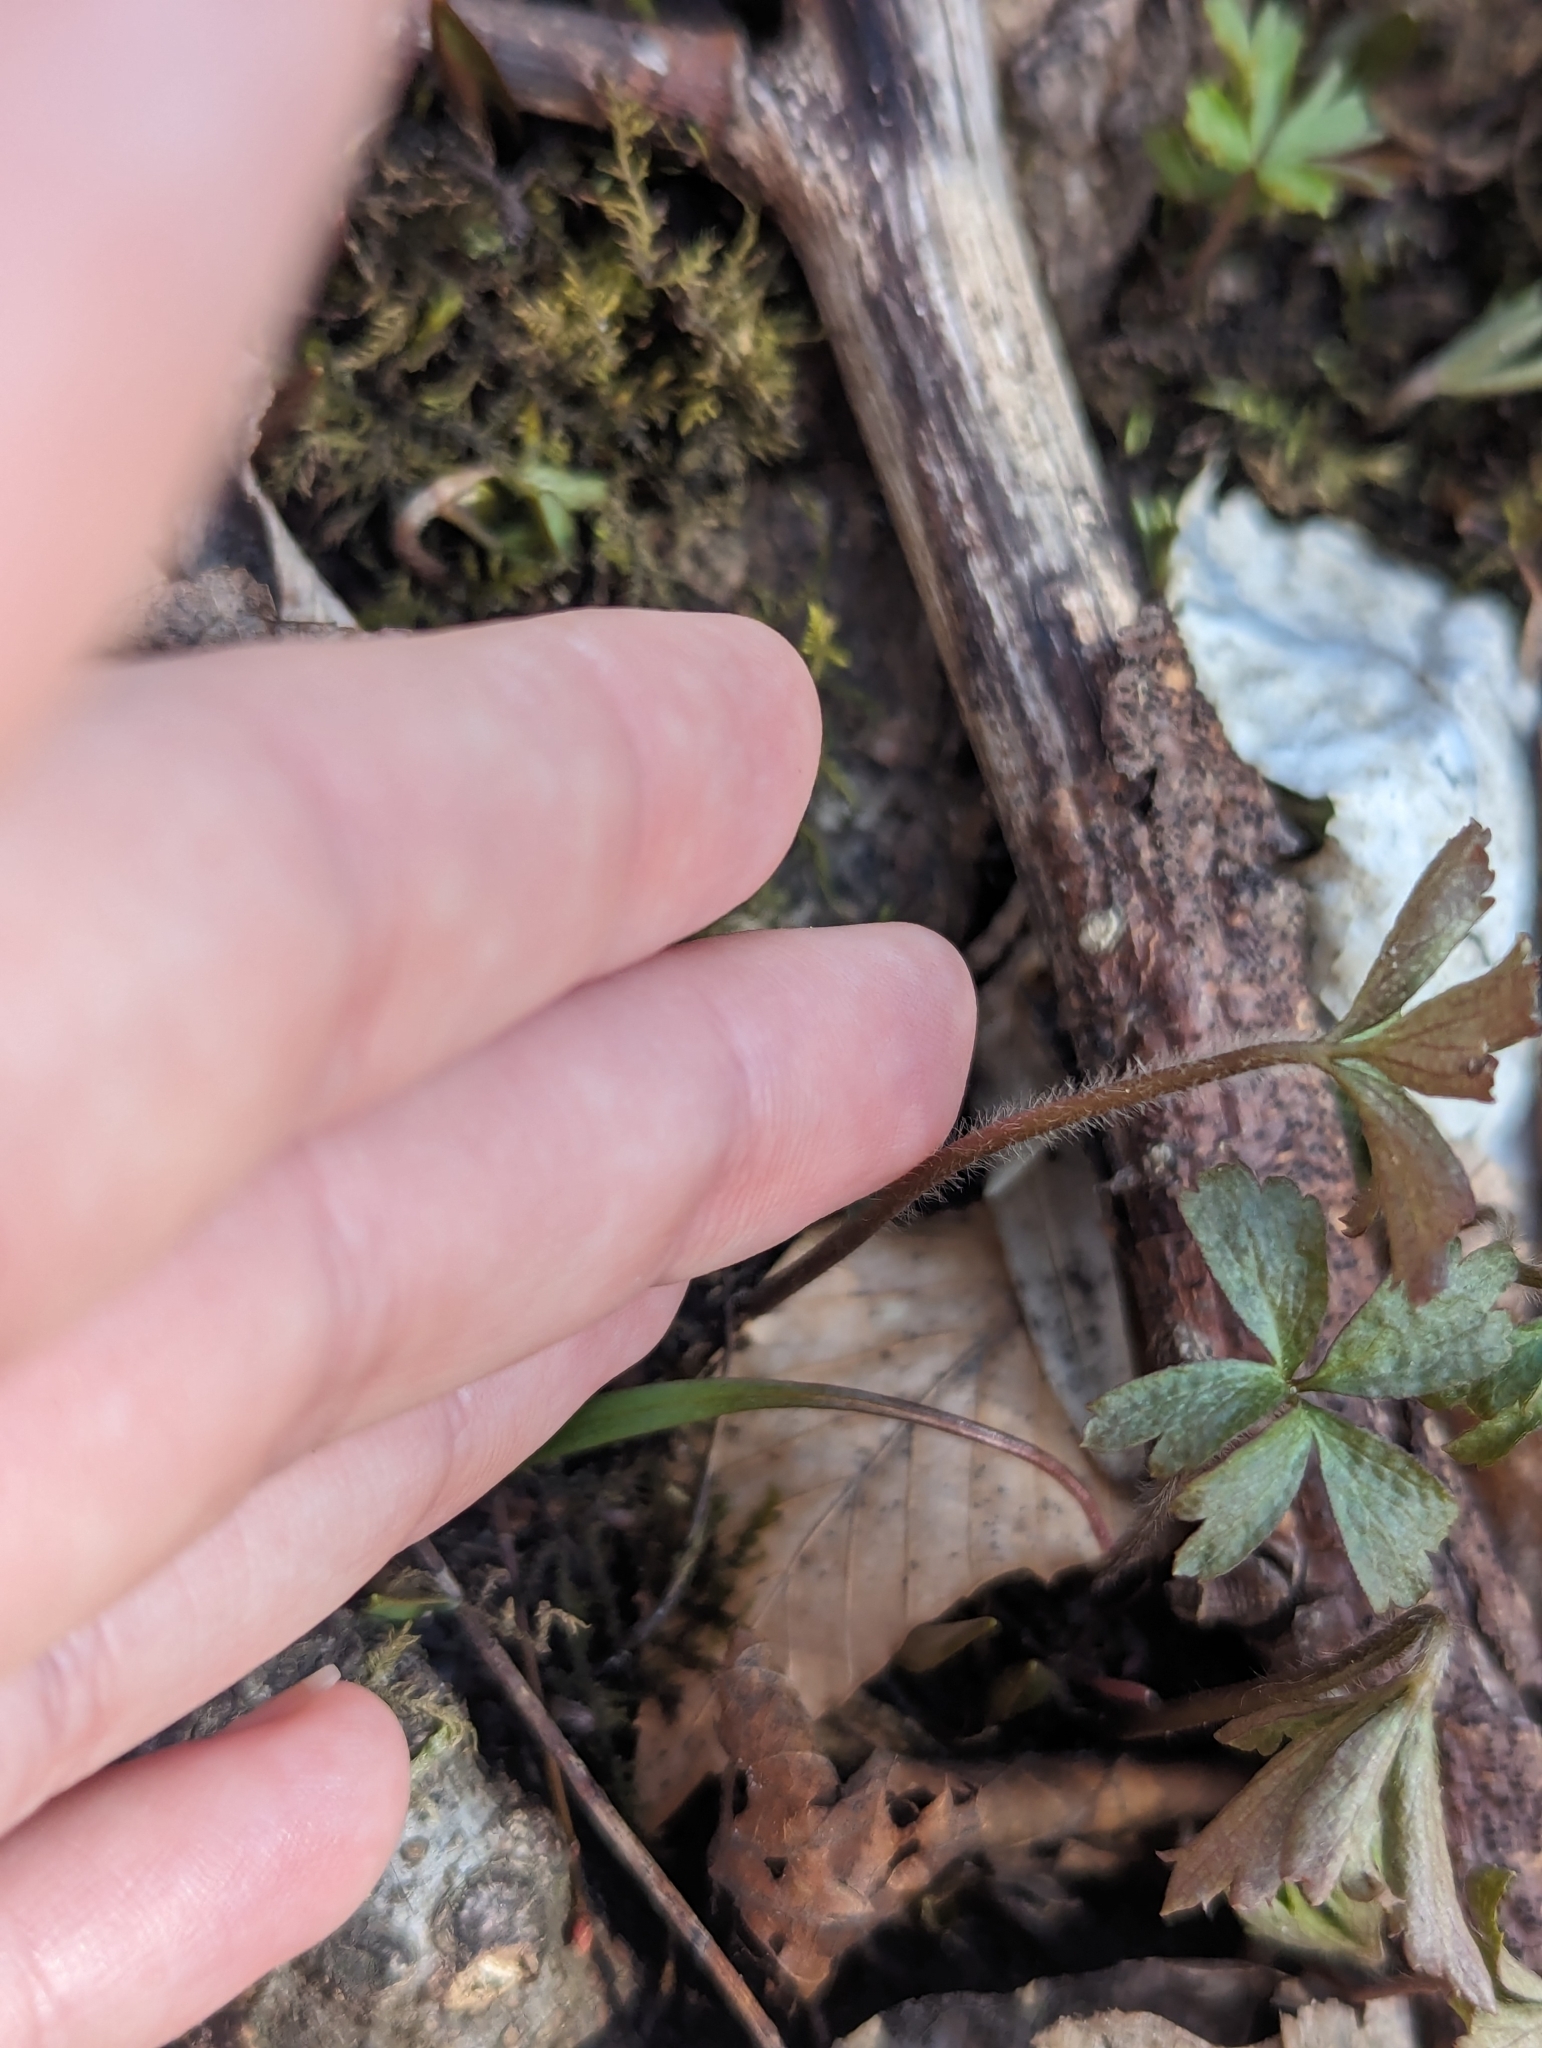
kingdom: Plantae
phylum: Tracheophyta
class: Magnoliopsida
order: Ranunculales
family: Ranunculaceae
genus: Anemone
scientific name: Anemone quinquefolia
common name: Wood anemone
